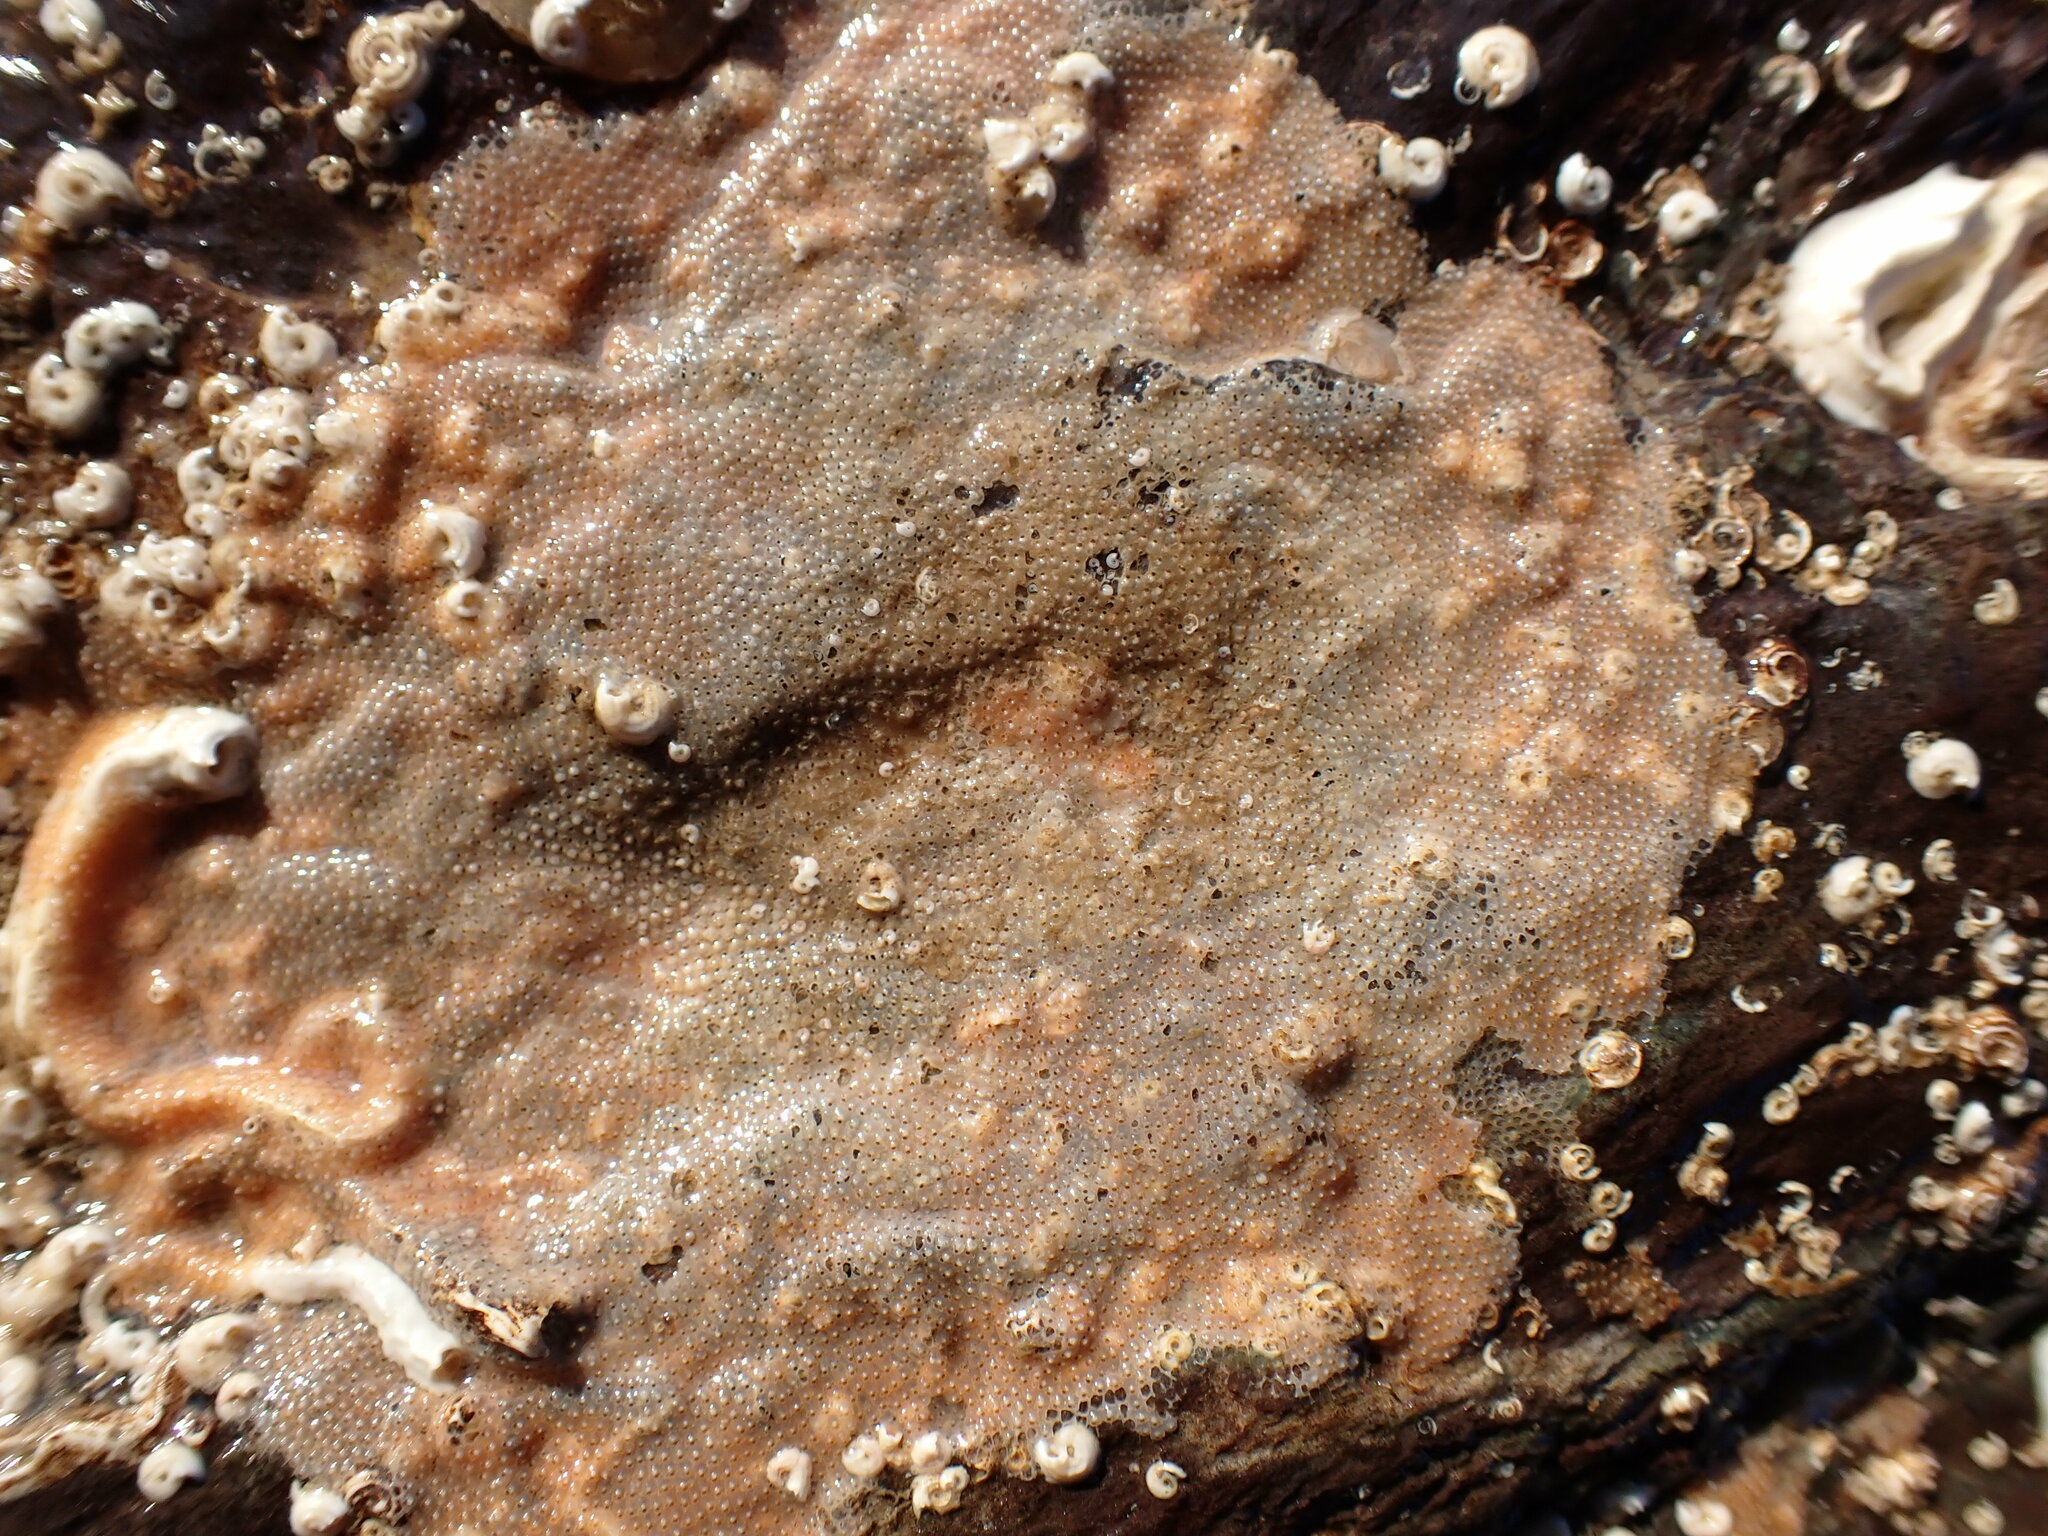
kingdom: Animalia
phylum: Bryozoa
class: Gymnolaemata
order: Cheilostomatida
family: Cryptosulidae
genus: Cryptosula
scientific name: Cryptosula pallasiana
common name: Red crust
